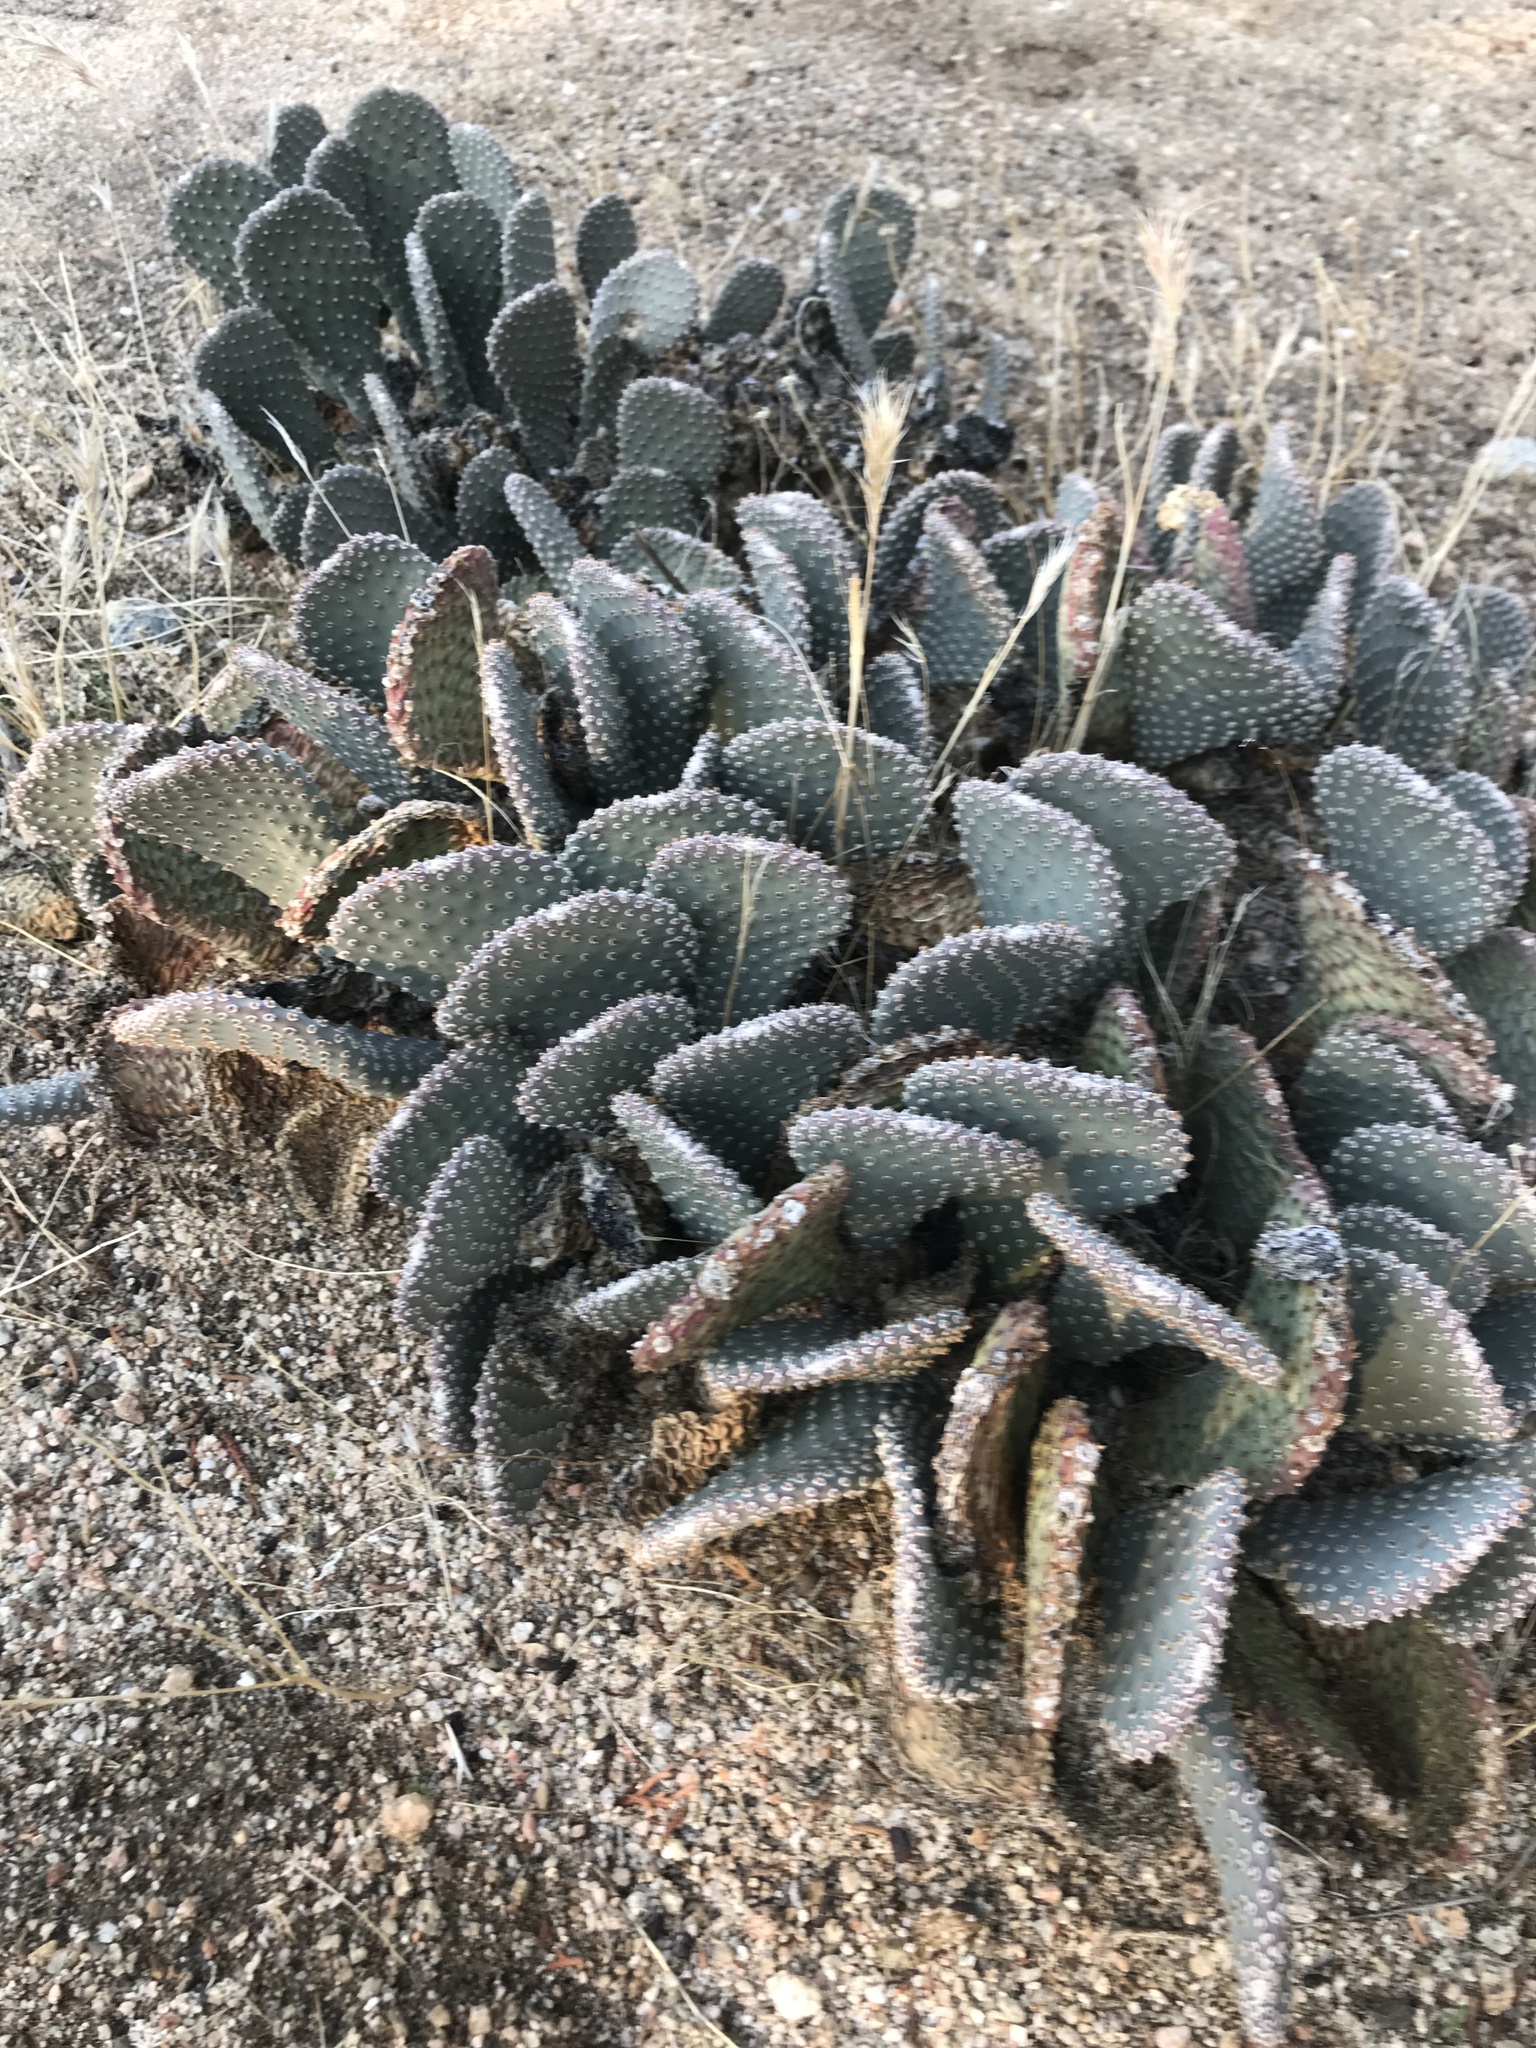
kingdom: Plantae
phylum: Tracheophyta
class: Magnoliopsida
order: Caryophyllales
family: Cactaceae
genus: Opuntia
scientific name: Opuntia basilaris
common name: Beavertail prickly-pear
